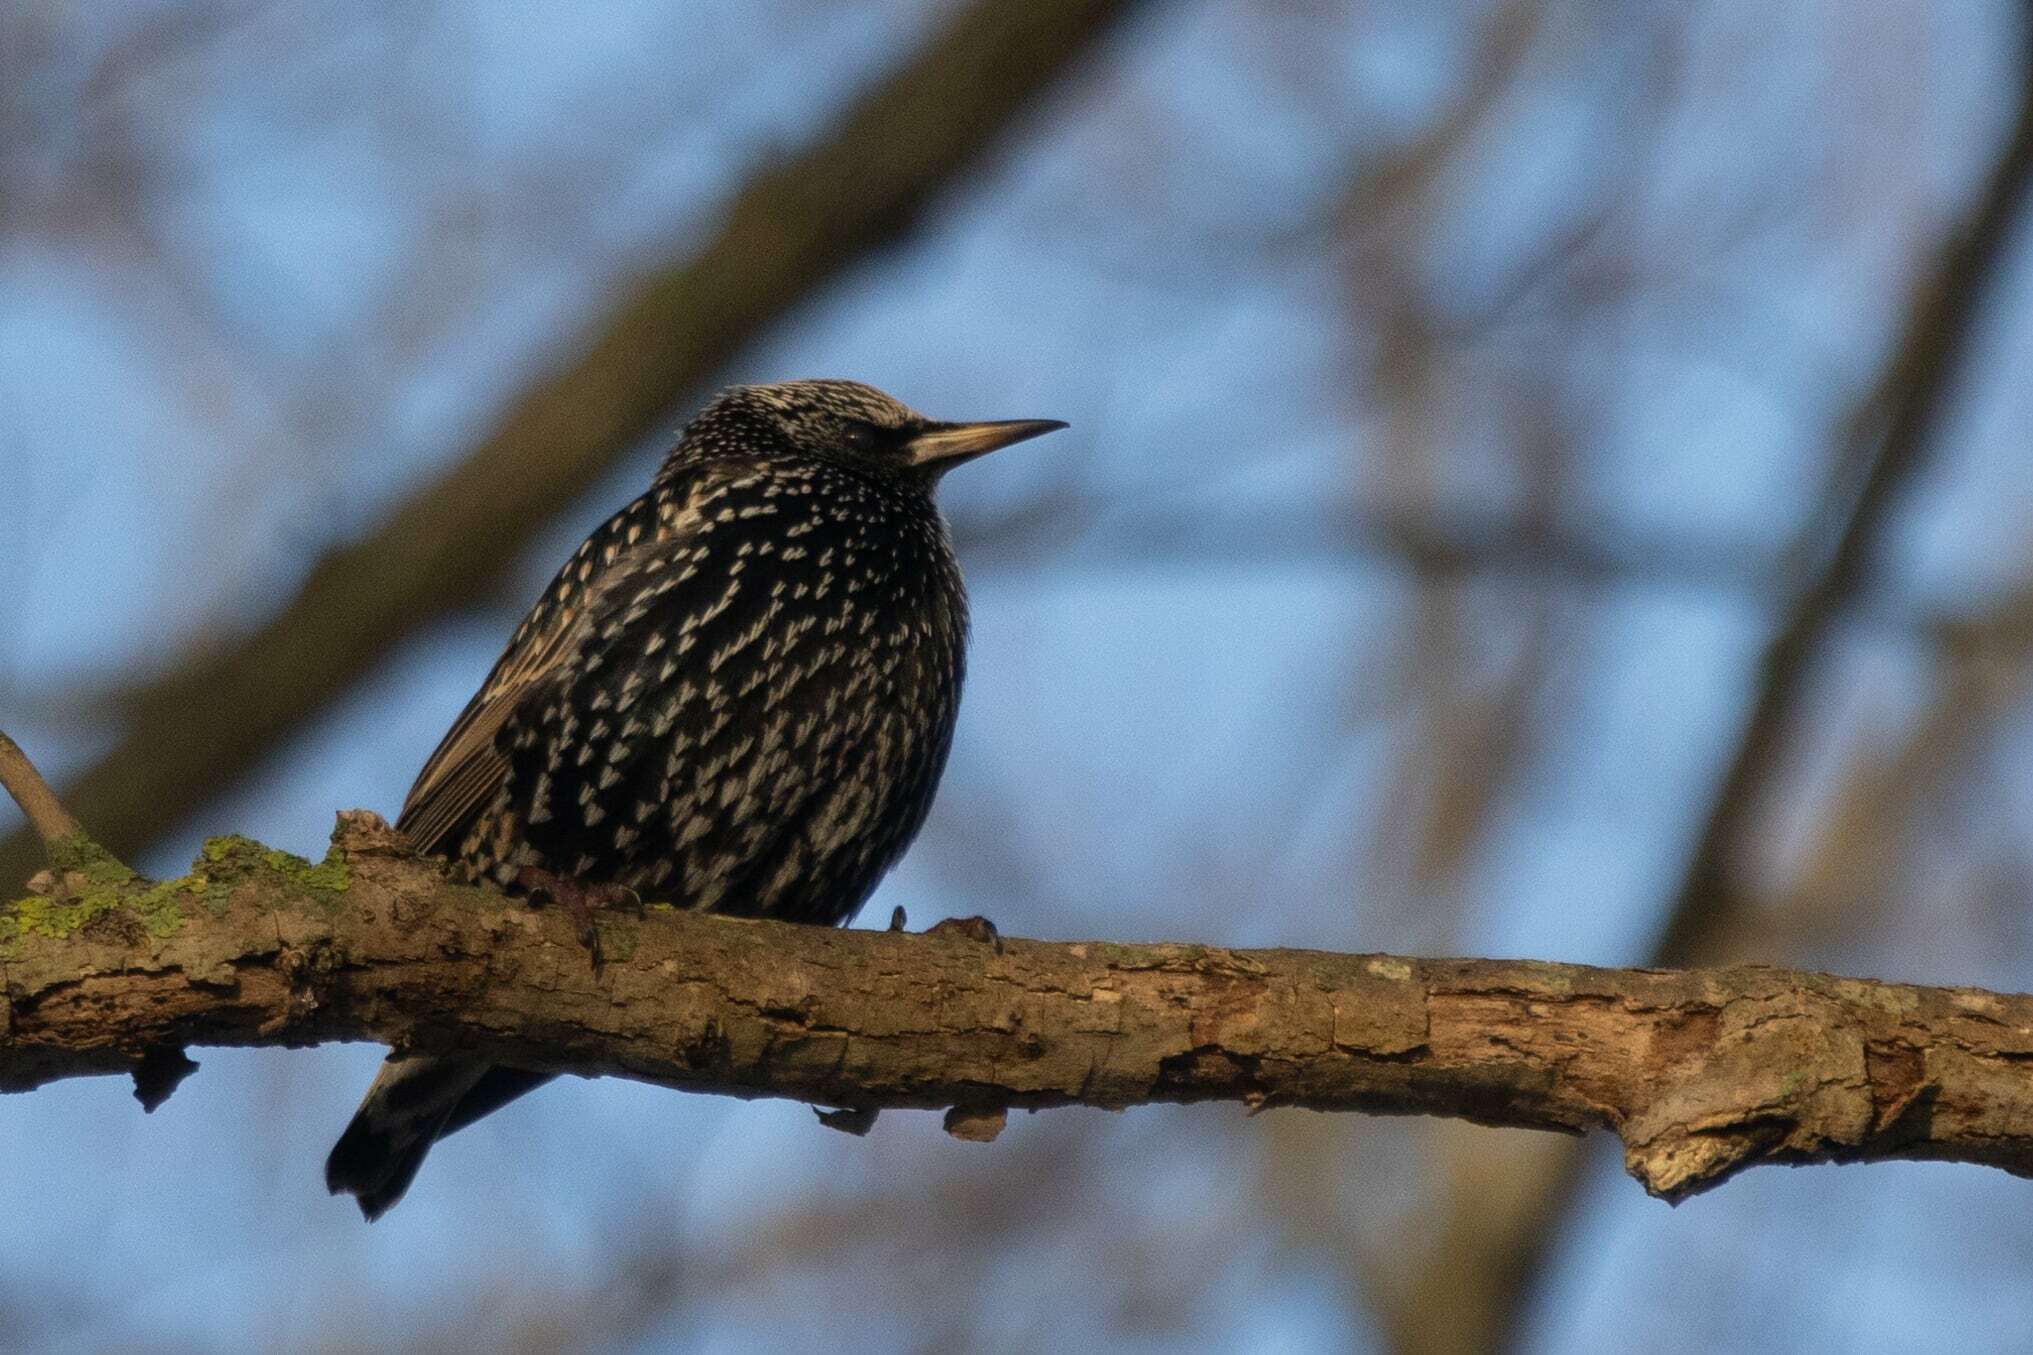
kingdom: Animalia
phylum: Chordata
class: Aves
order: Passeriformes
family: Sturnidae
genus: Sturnus
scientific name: Sturnus vulgaris
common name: Common starling
